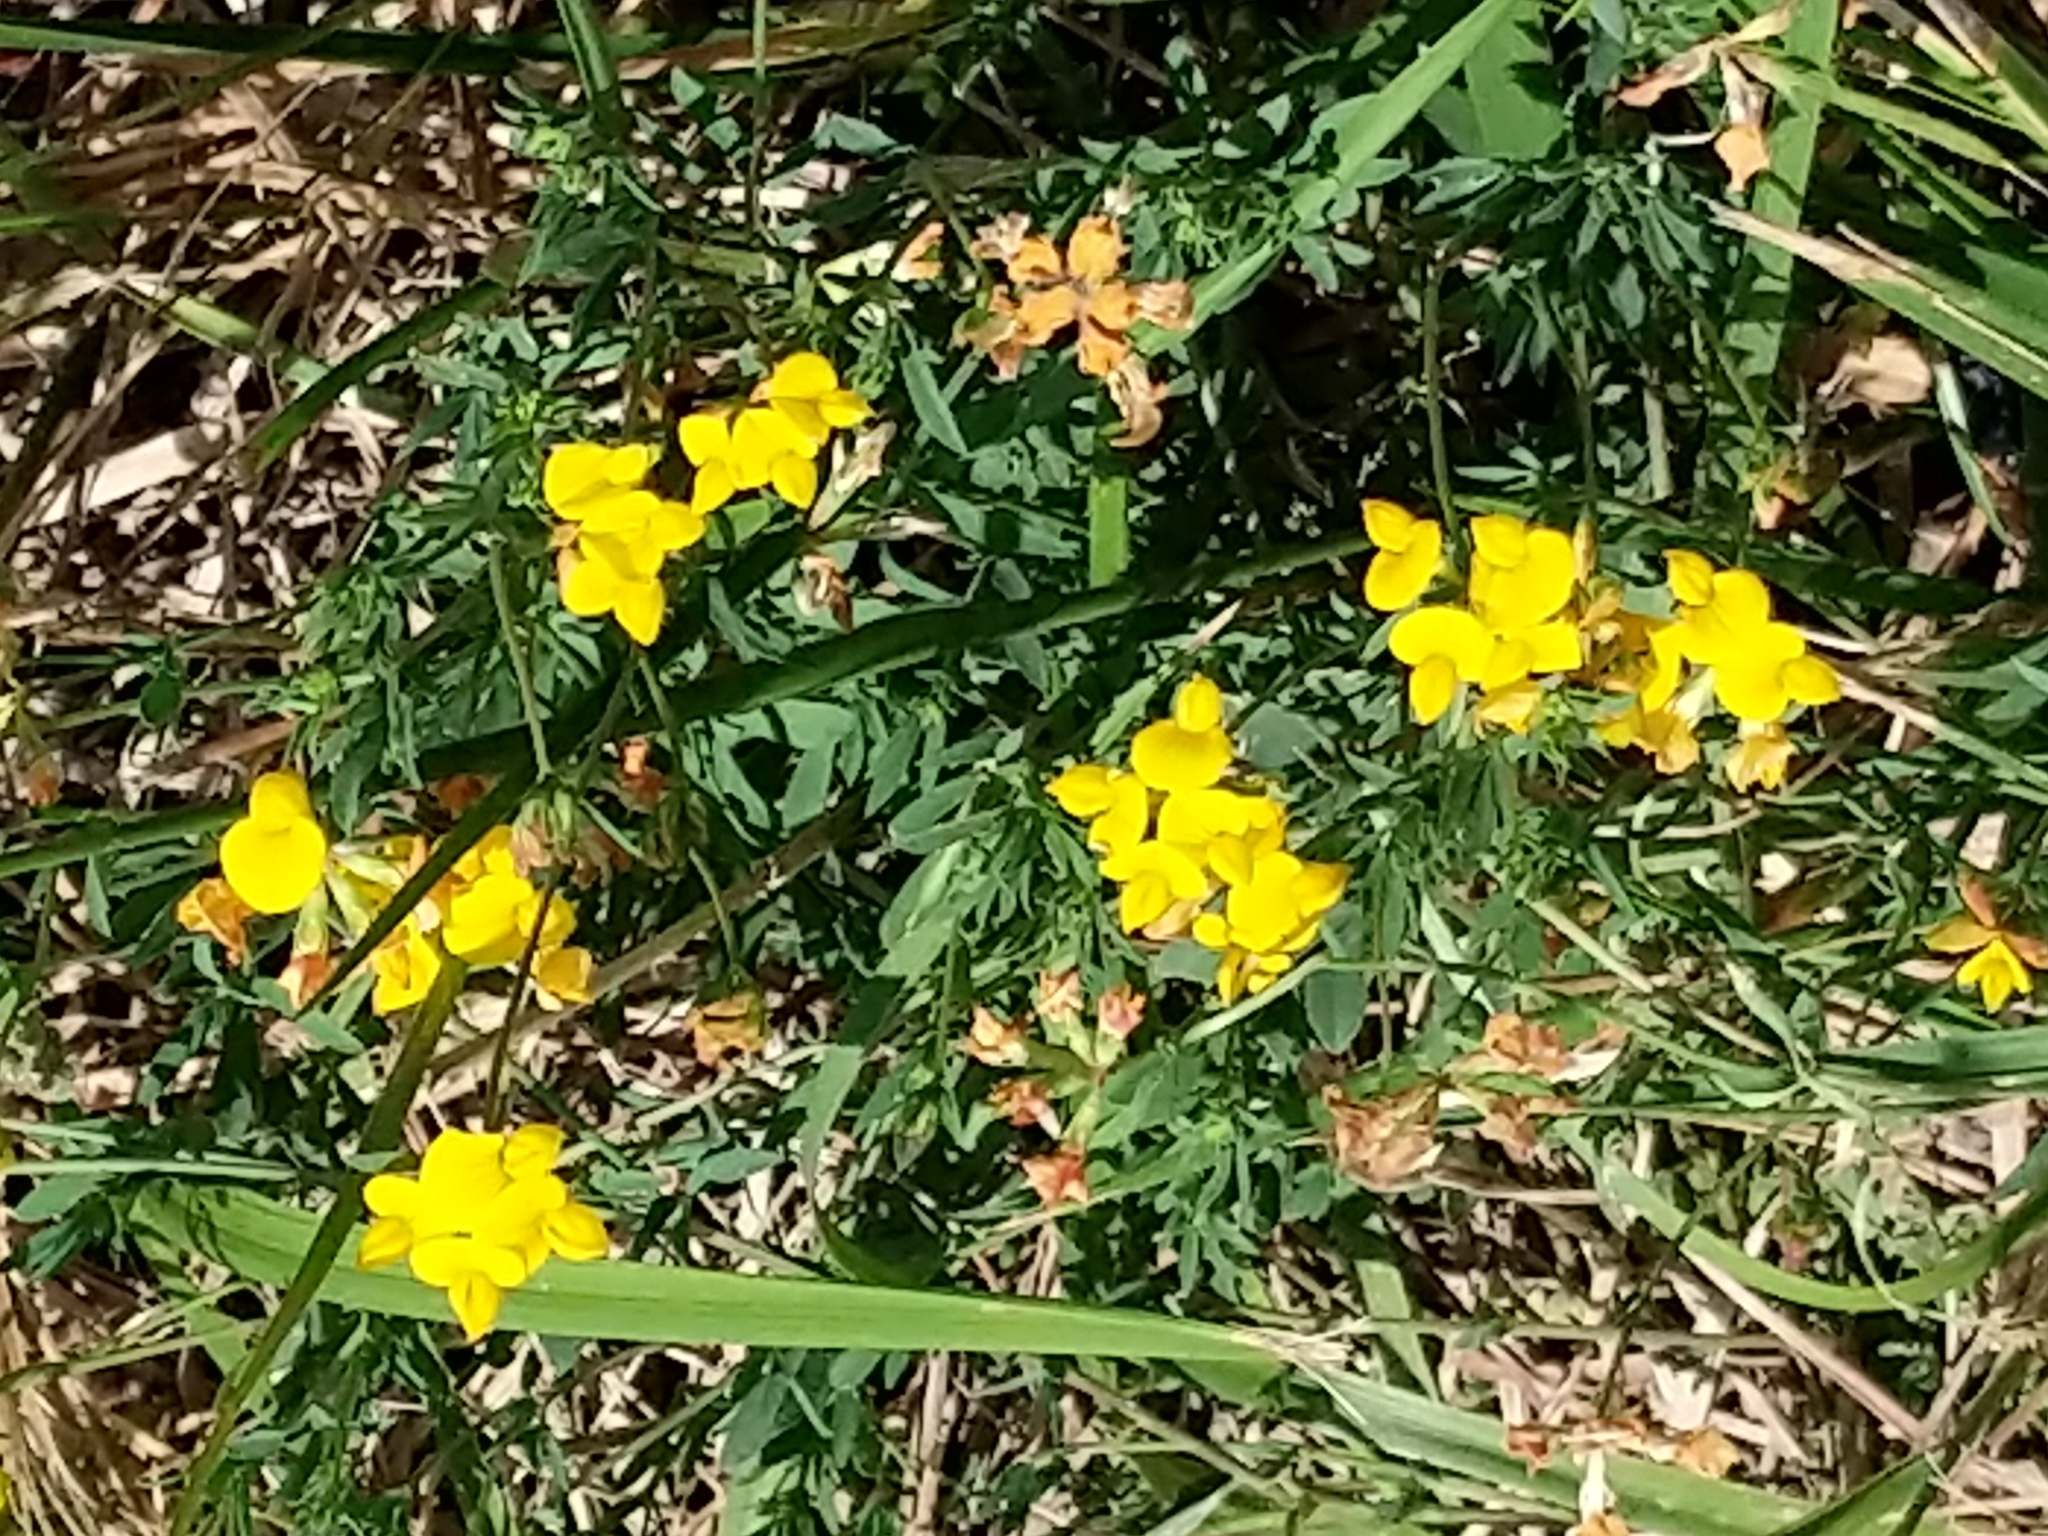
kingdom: Plantae
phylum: Tracheophyta
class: Magnoliopsida
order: Fabales
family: Fabaceae
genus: Lotus
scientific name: Lotus corniculatus
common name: Common bird's-foot-trefoil
